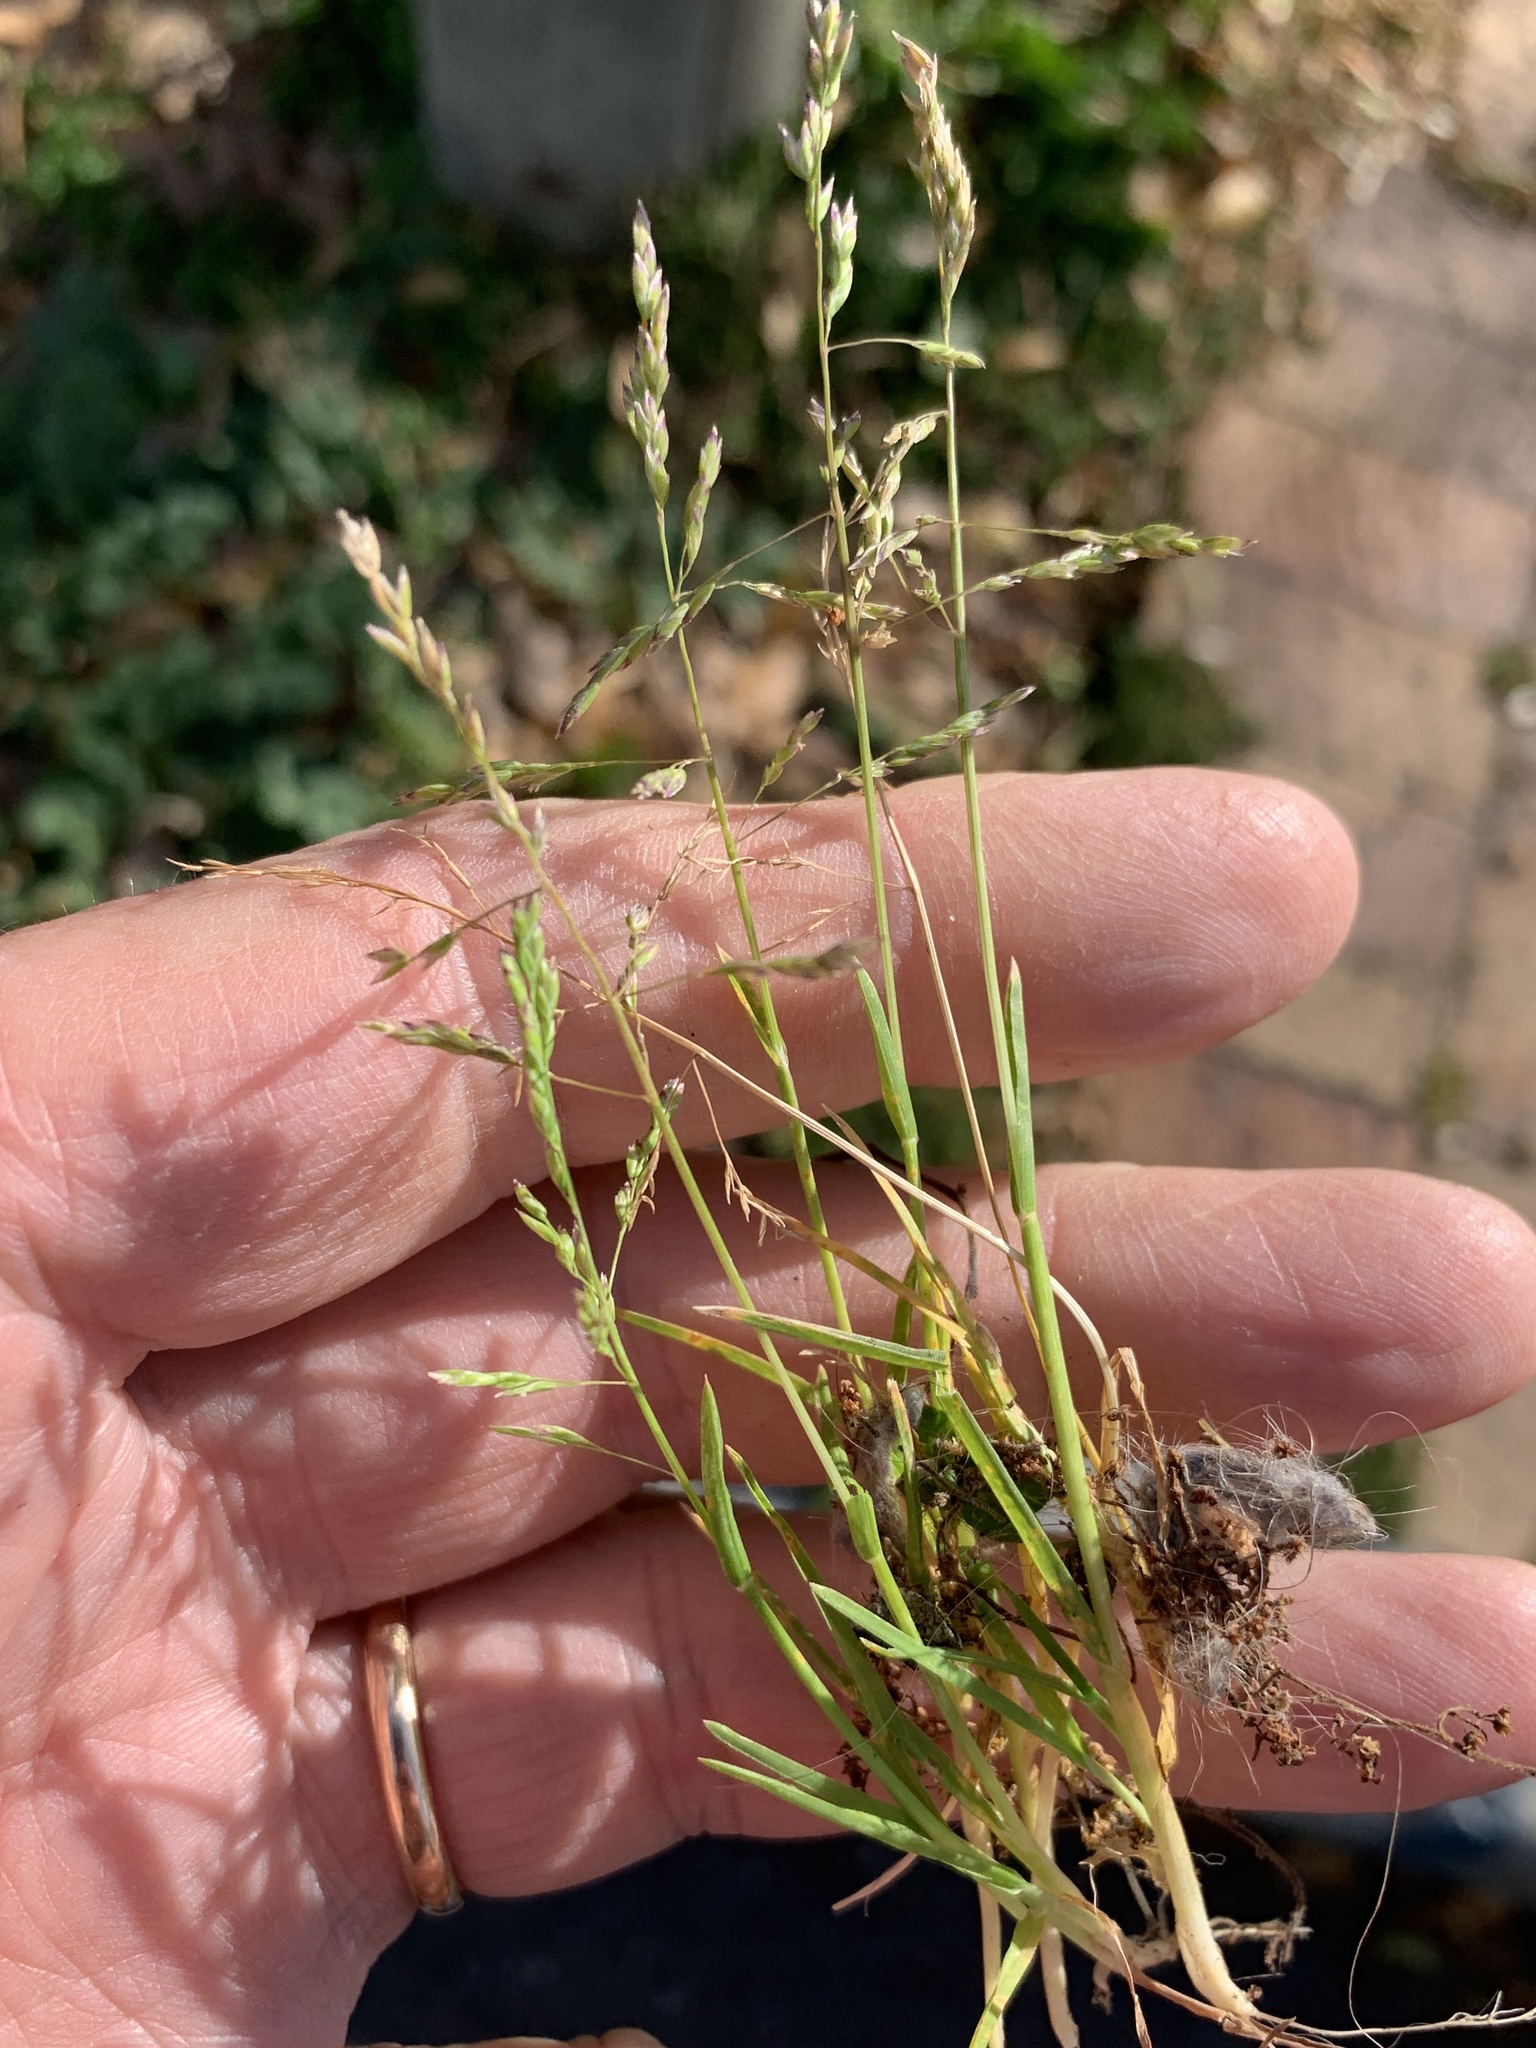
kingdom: Plantae
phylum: Tracheophyta
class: Liliopsida
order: Poales
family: Poaceae
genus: Poa
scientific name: Poa annua
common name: Annual bluegrass
